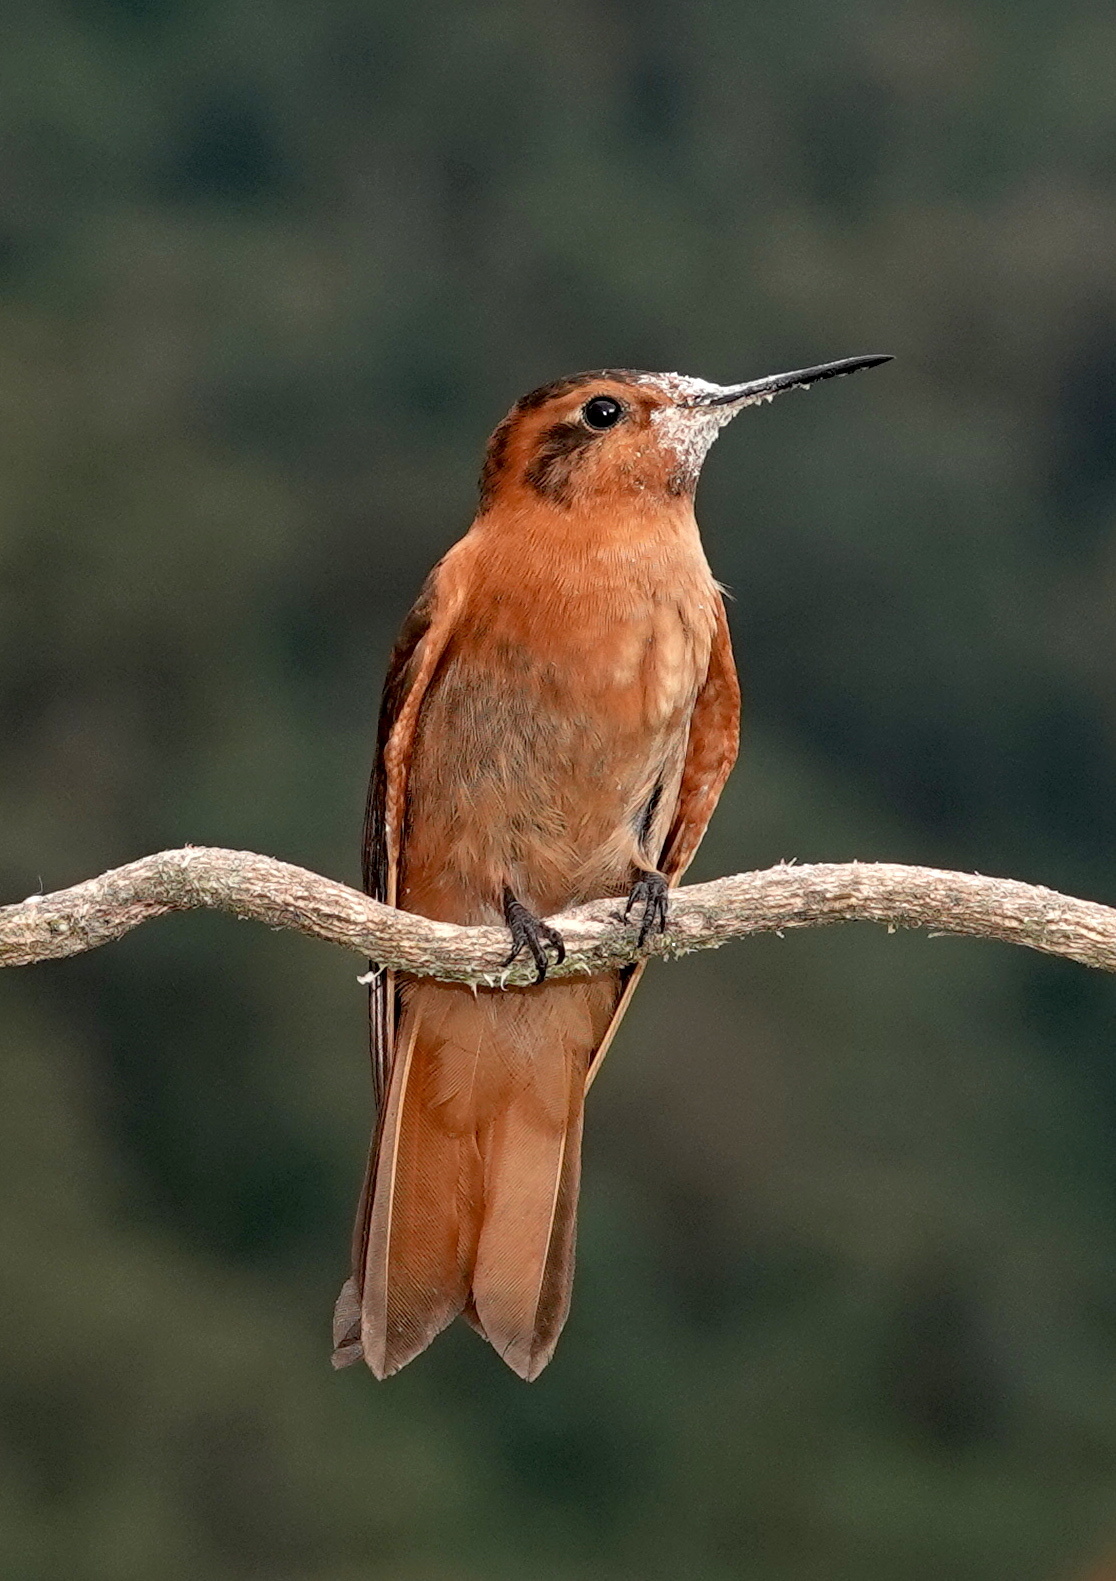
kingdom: Animalia
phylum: Chordata
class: Aves
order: Apodiformes
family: Trochilidae
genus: Aglaeactis
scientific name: Aglaeactis cupripennis
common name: Shining sunbeam
